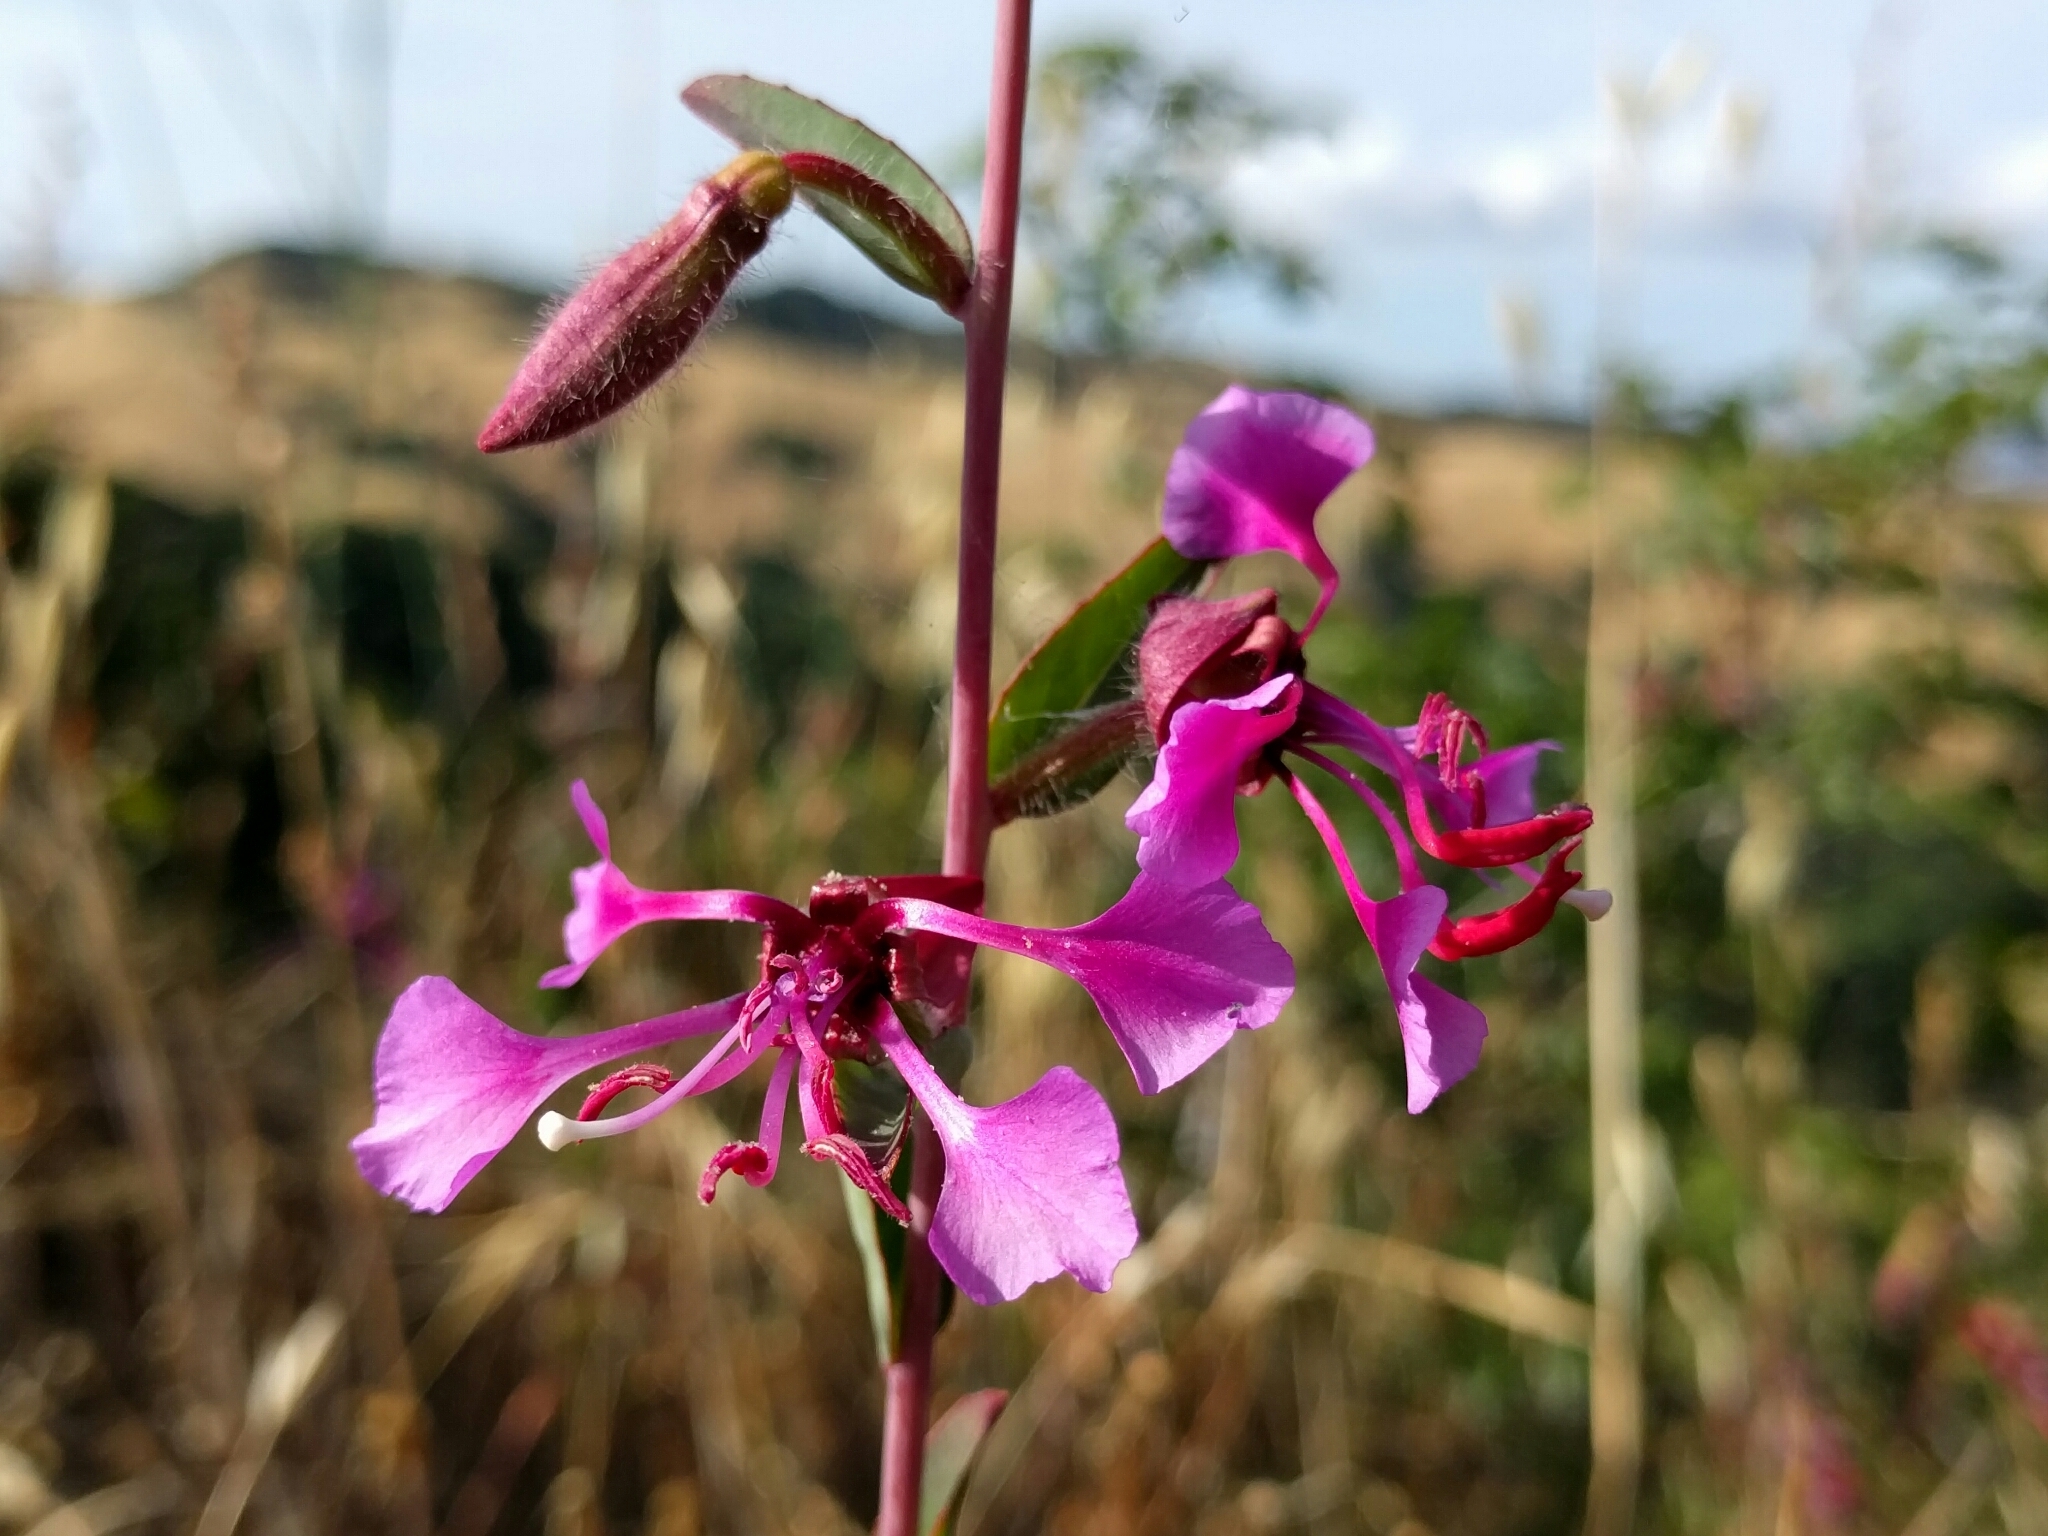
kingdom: Plantae
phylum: Tracheophyta
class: Magnoliopsida
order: Myrtales
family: Onagraceae
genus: Clarkia
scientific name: Clarkia unguiculata
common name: Clarkia
